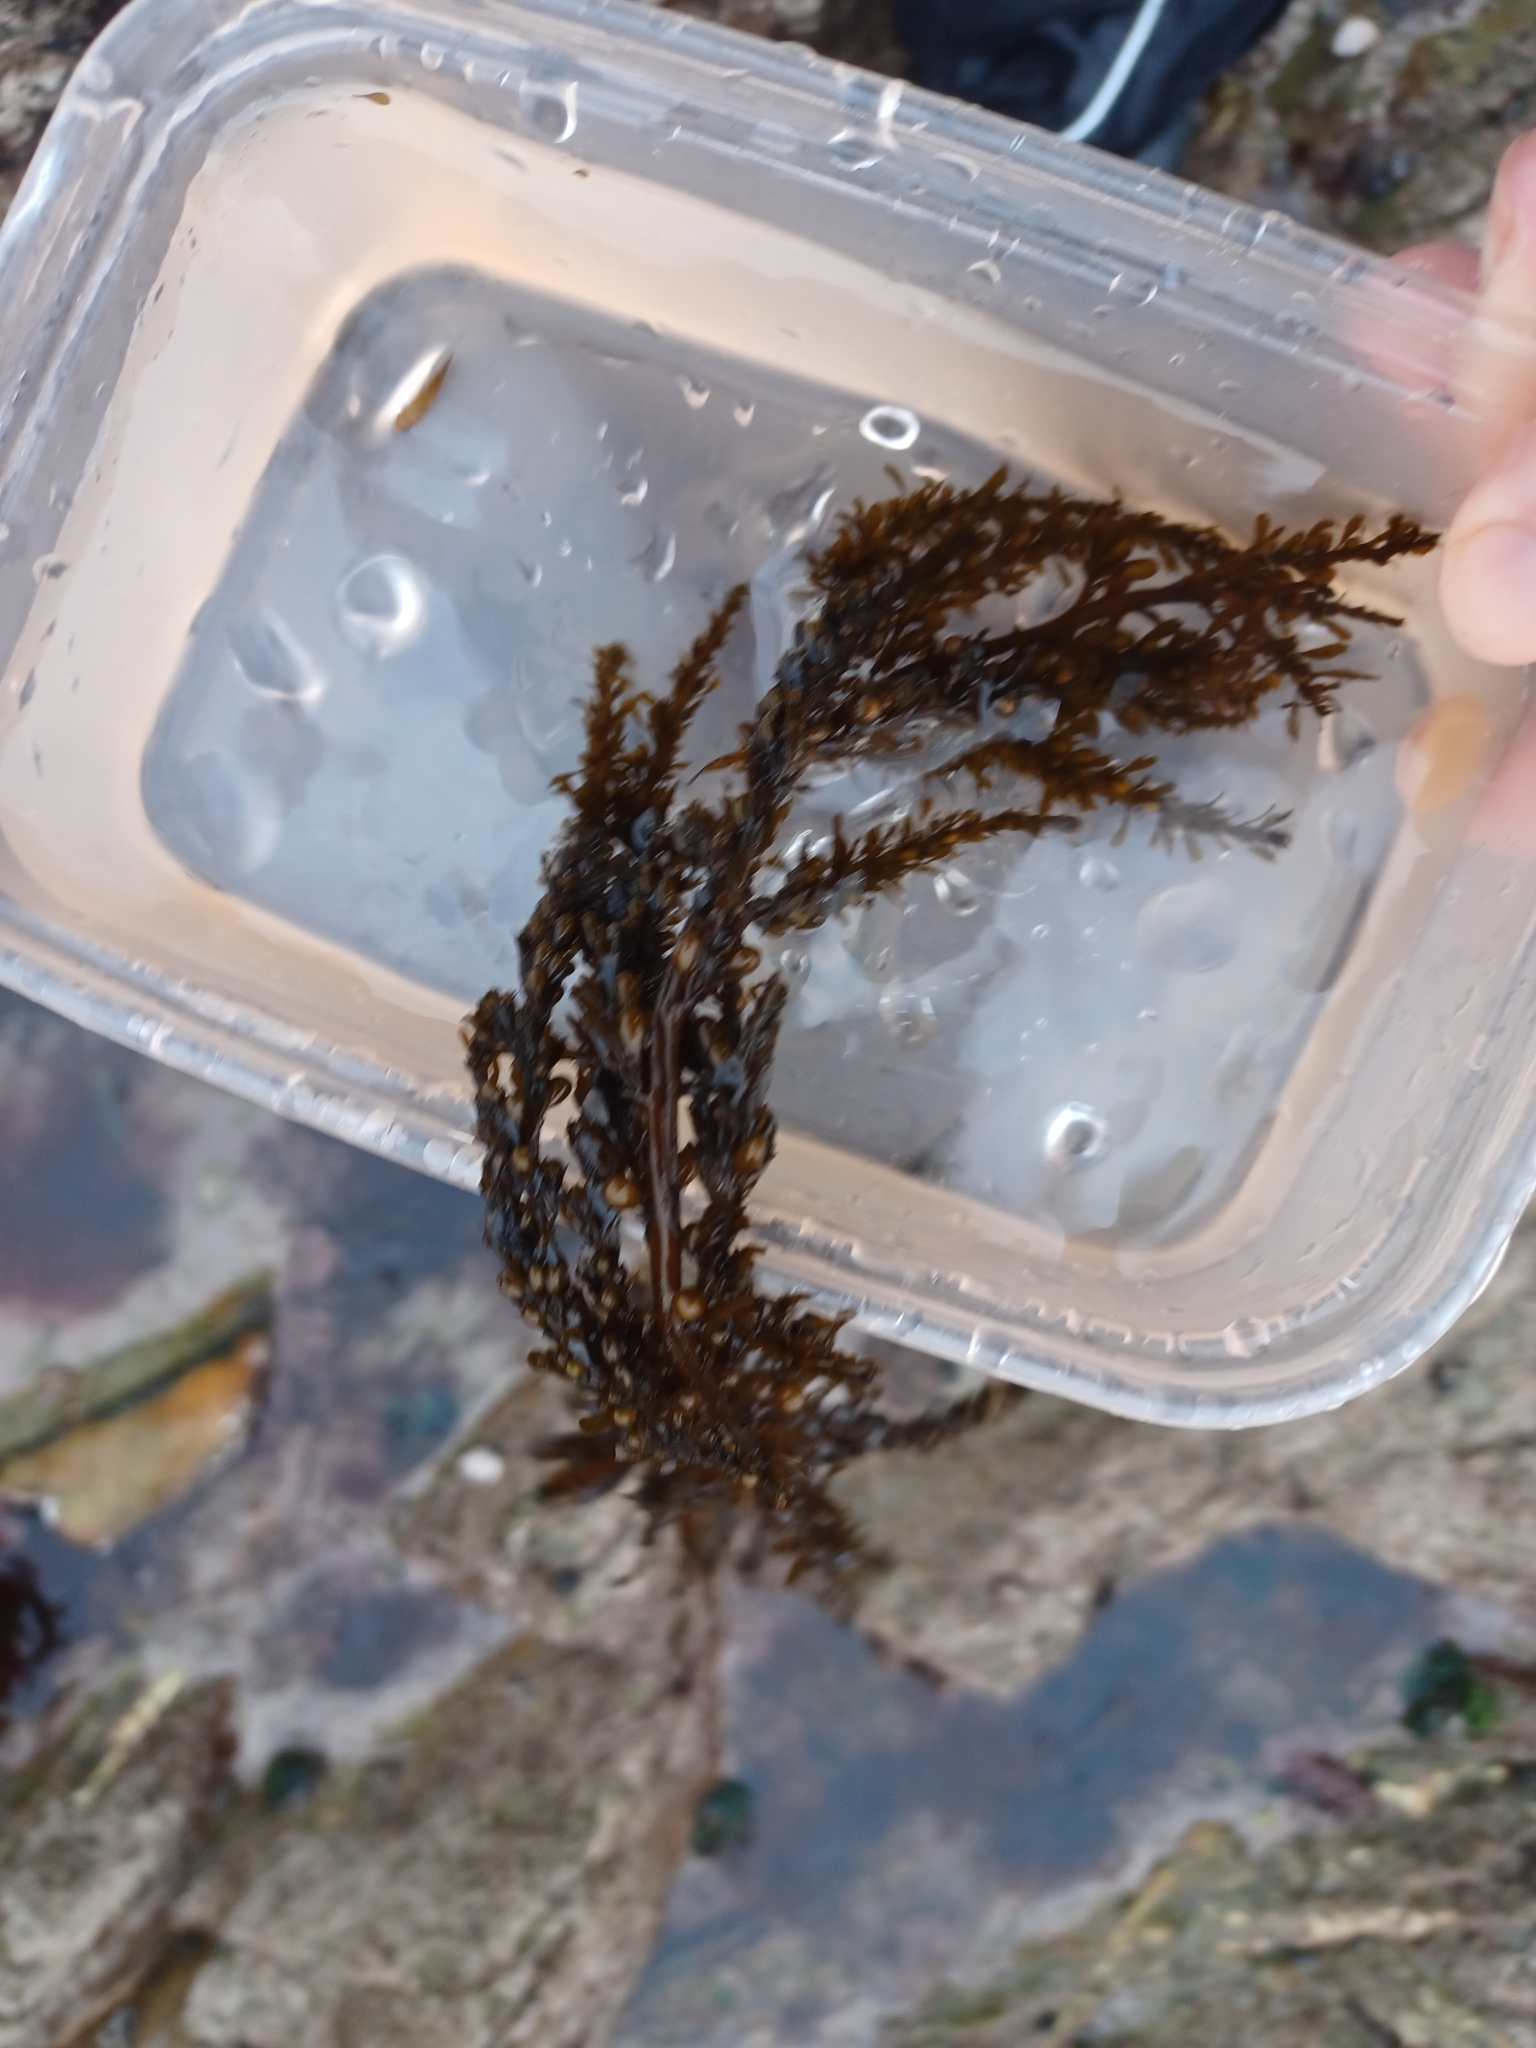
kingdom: Chromista
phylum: Ochrophyta
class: Phaeophyceae
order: Fucales
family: Sargassaceae
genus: Sargassum
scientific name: Sargassum muticum
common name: Japweed
